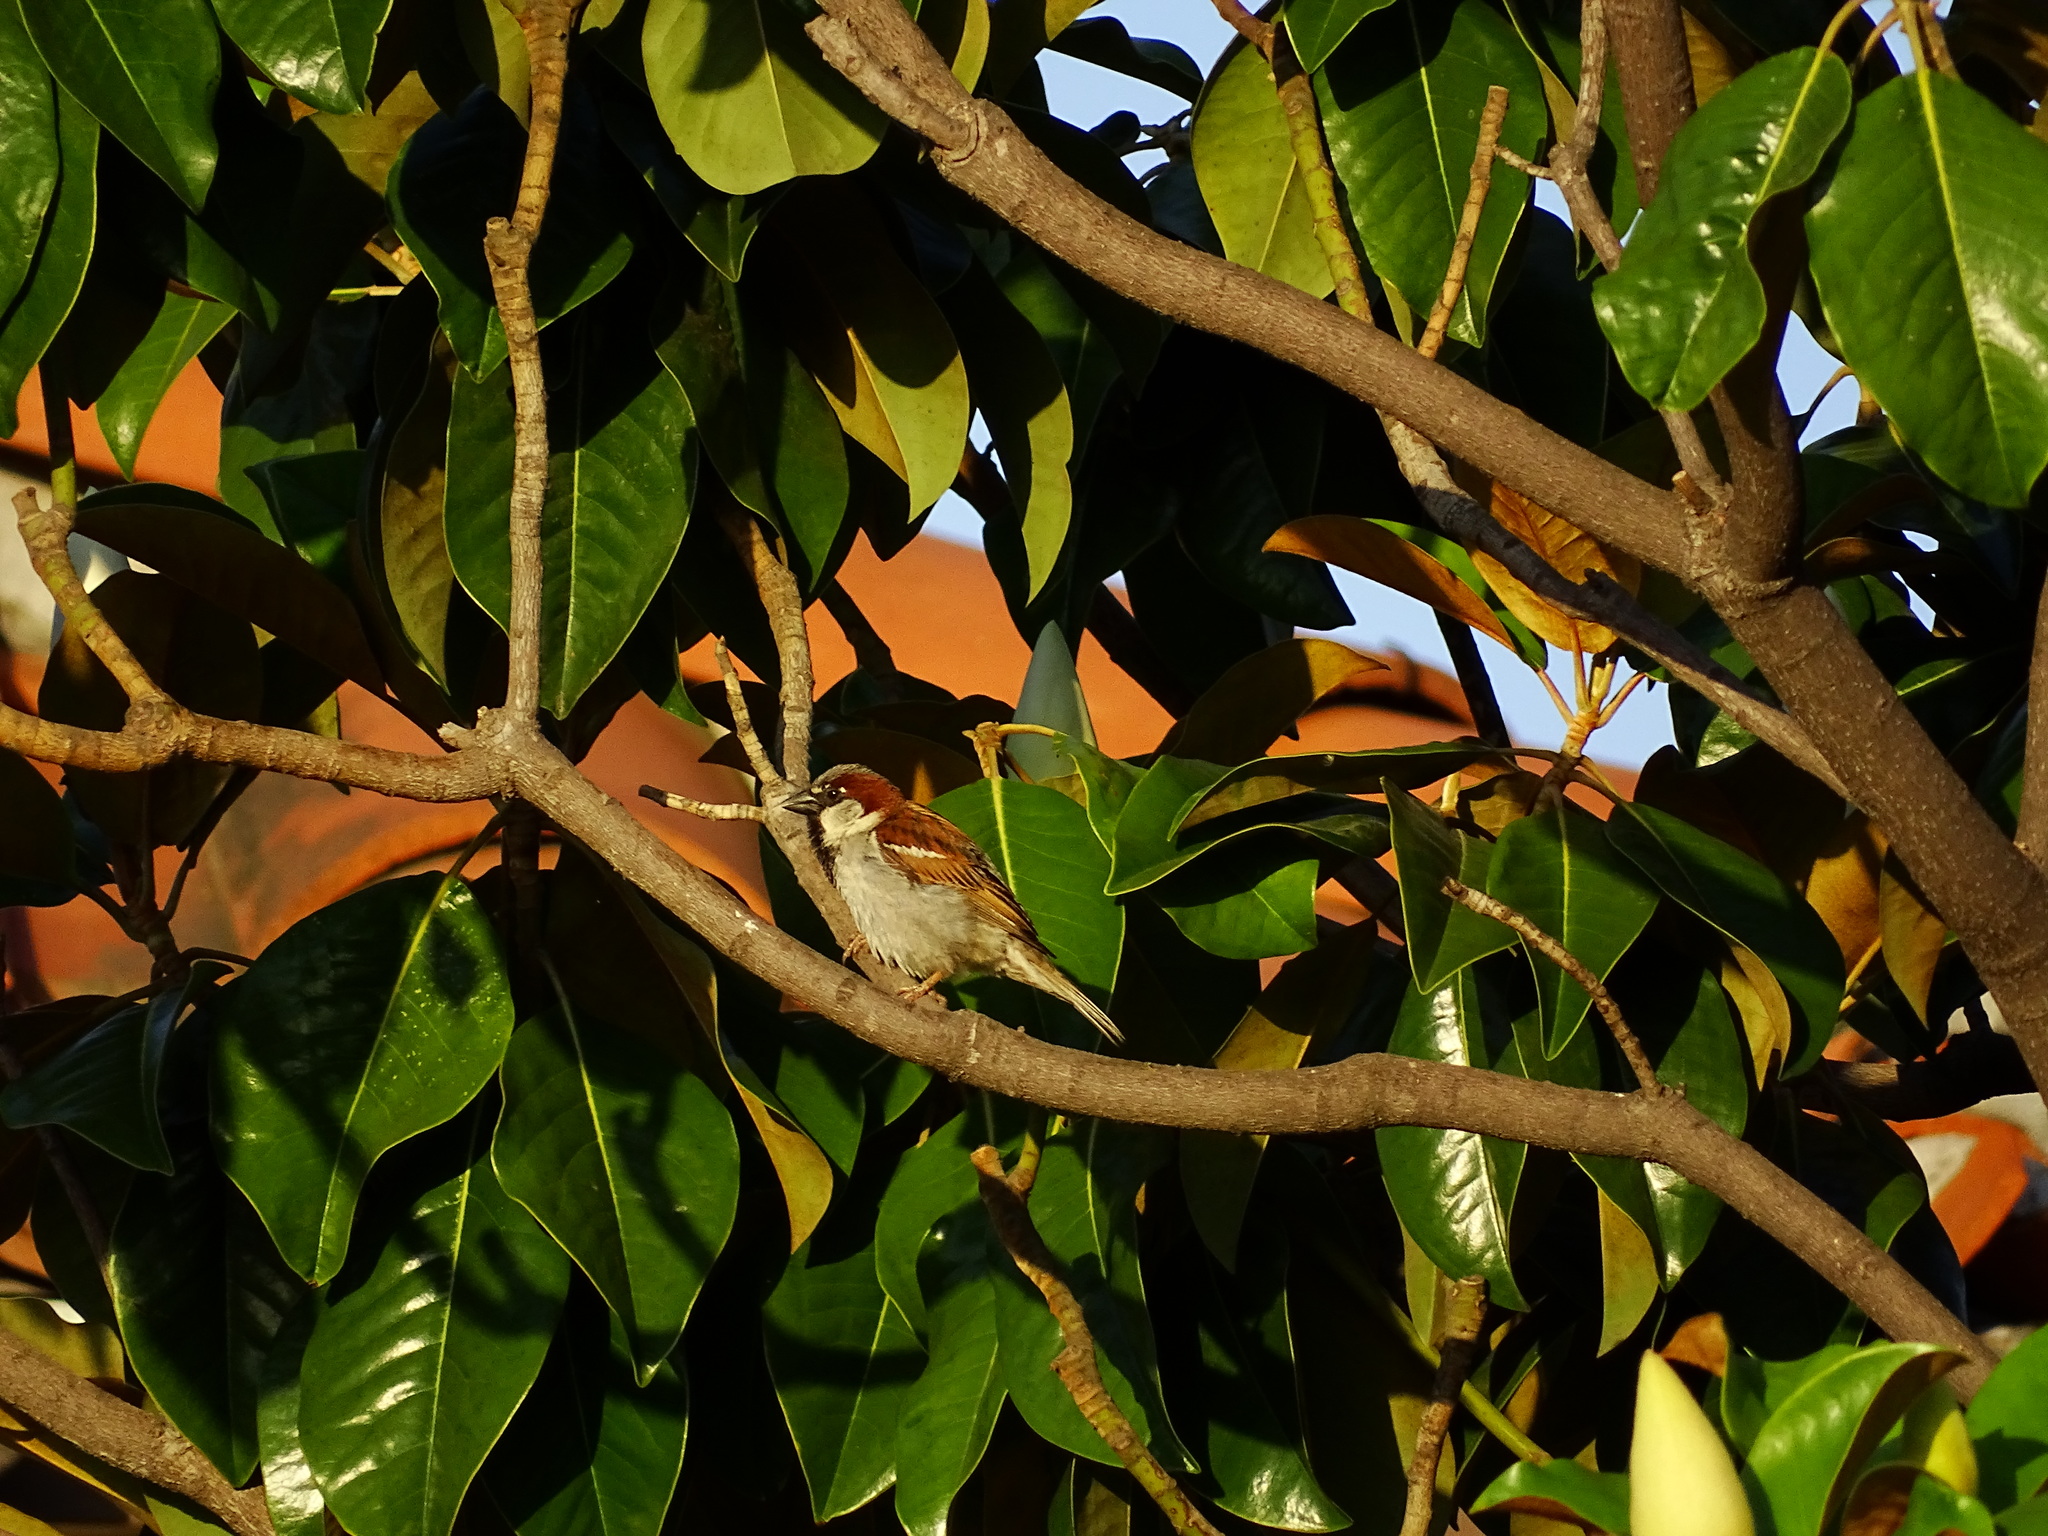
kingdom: Animalia
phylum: Chordata
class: Aves
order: Passeriformes
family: Passeridae
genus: Passer
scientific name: Passer domesticus
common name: House sparrow
